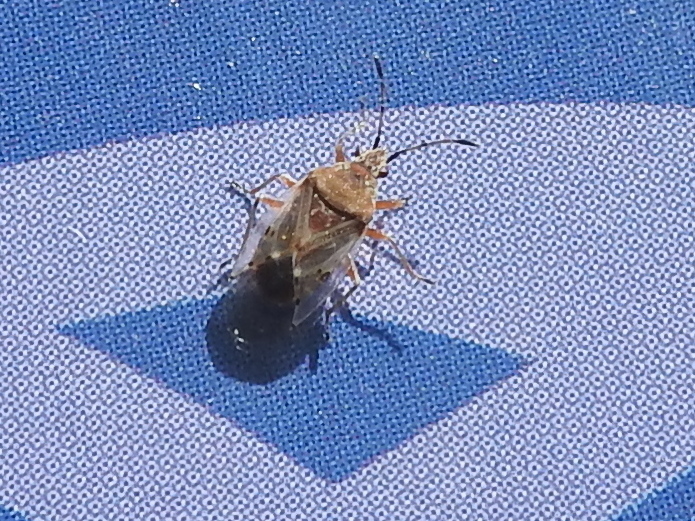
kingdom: Animalia
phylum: Arthropoda
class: Insecta
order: Hemiptera
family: Lygaeidae
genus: Kleidocerys
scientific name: Kleidocerys resedae
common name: Birch catkin bug
